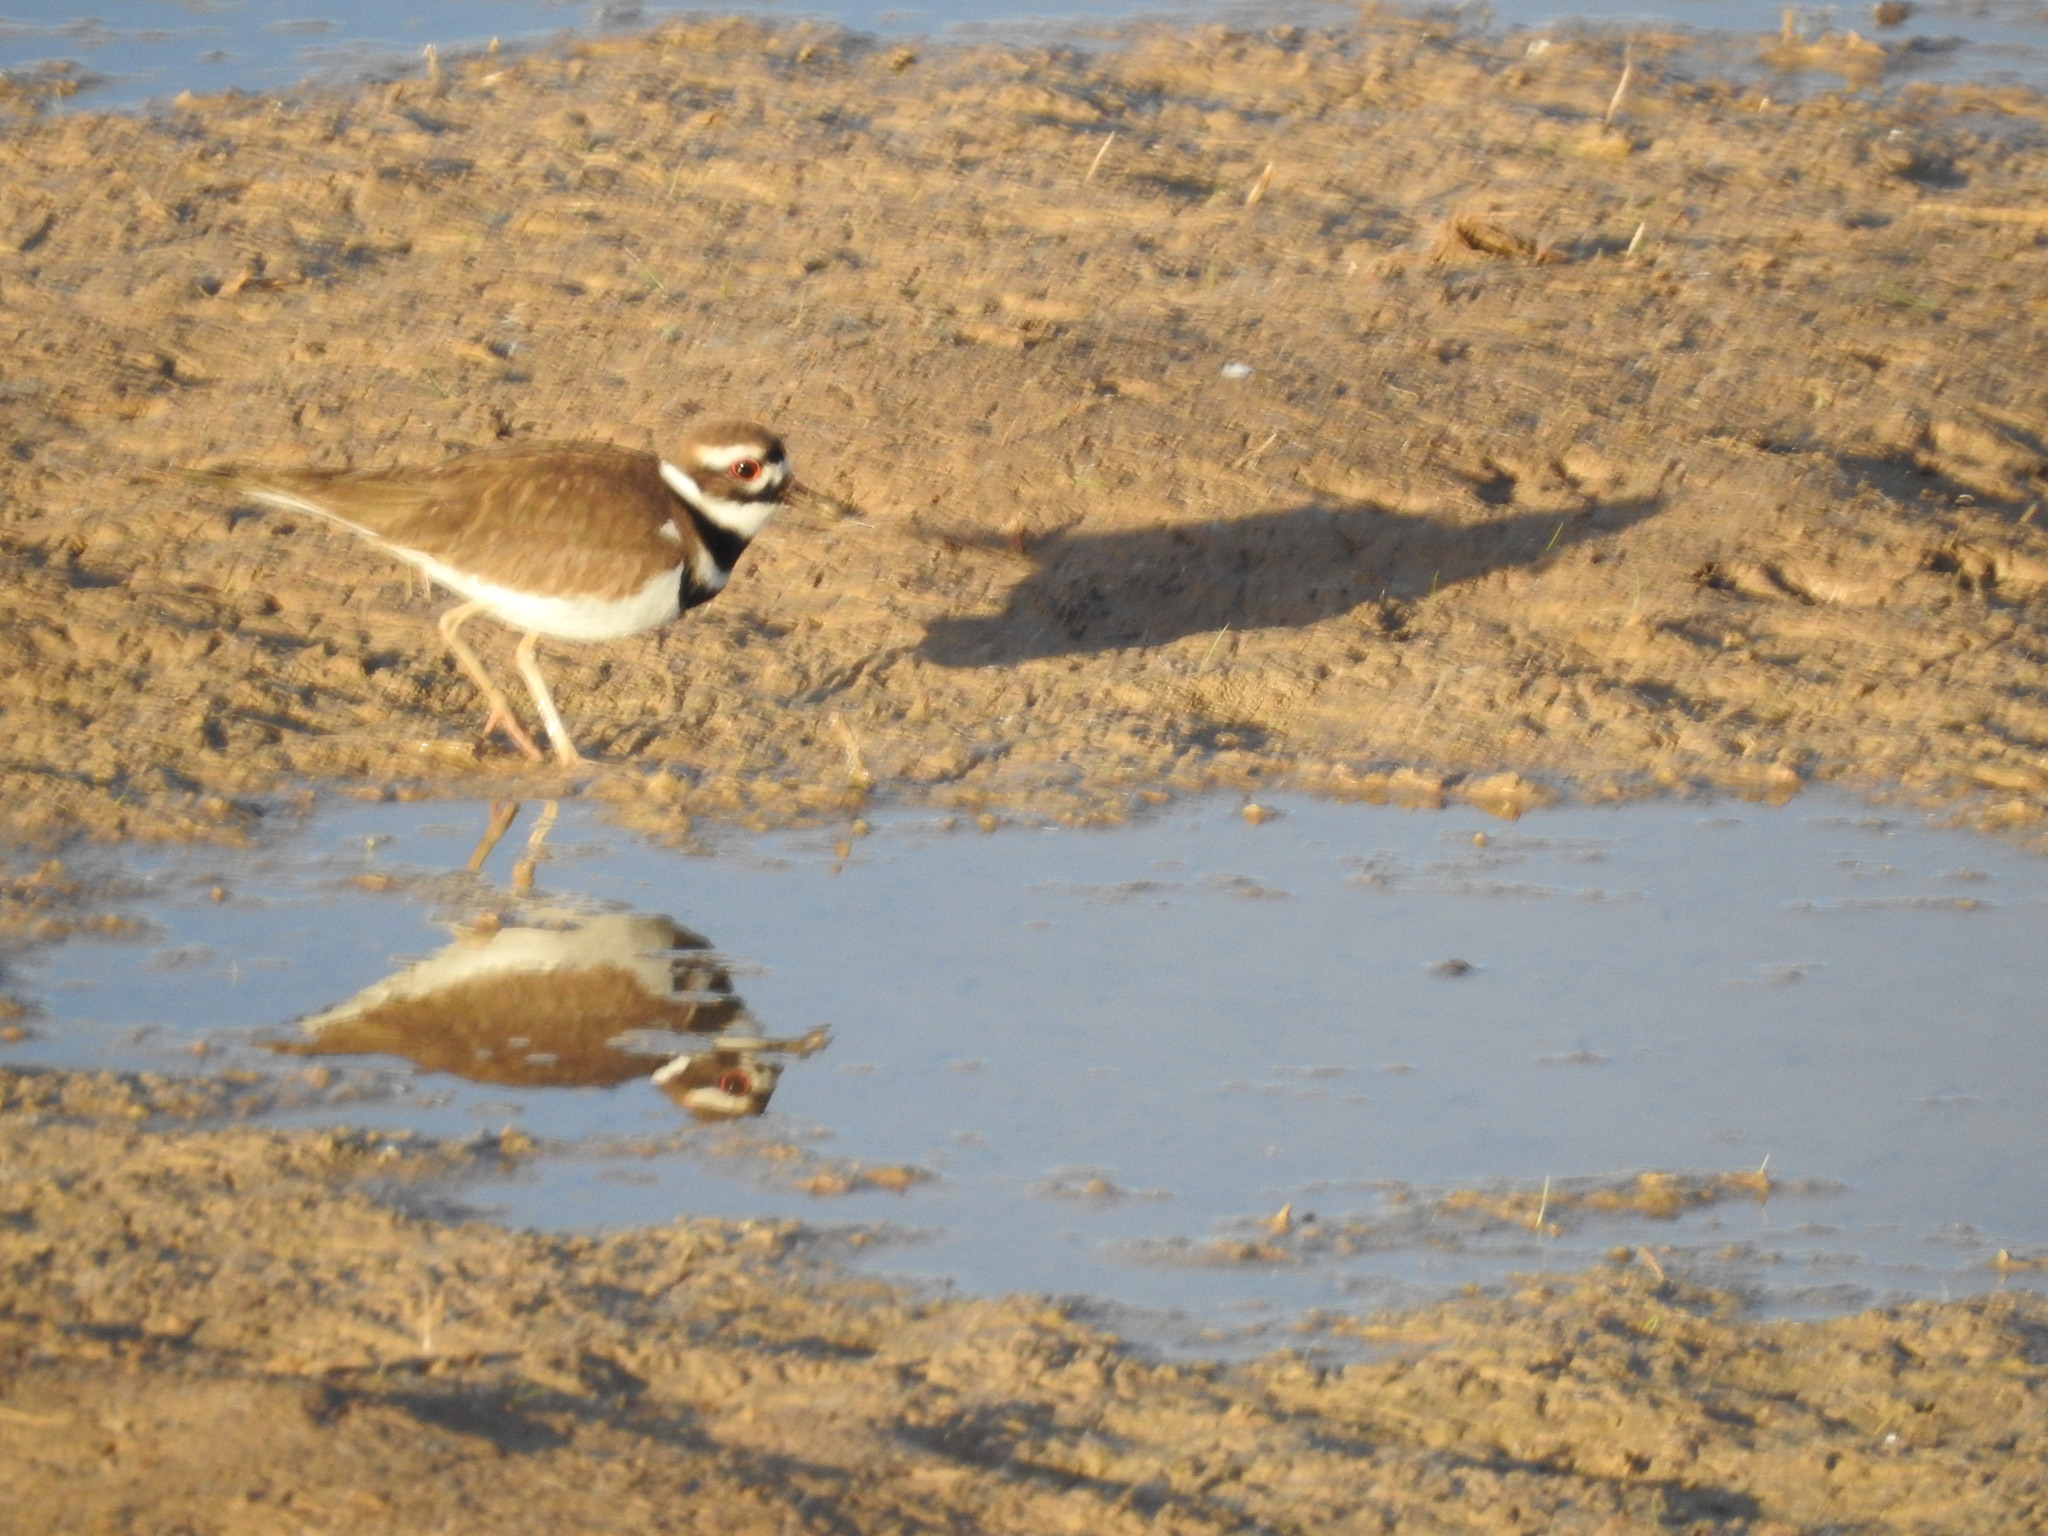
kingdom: Animalia
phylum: Chordata
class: Aves
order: Charadriiformes
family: Charadriidae
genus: Charadrius
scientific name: Charadrius vociferus
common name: Killdeer
